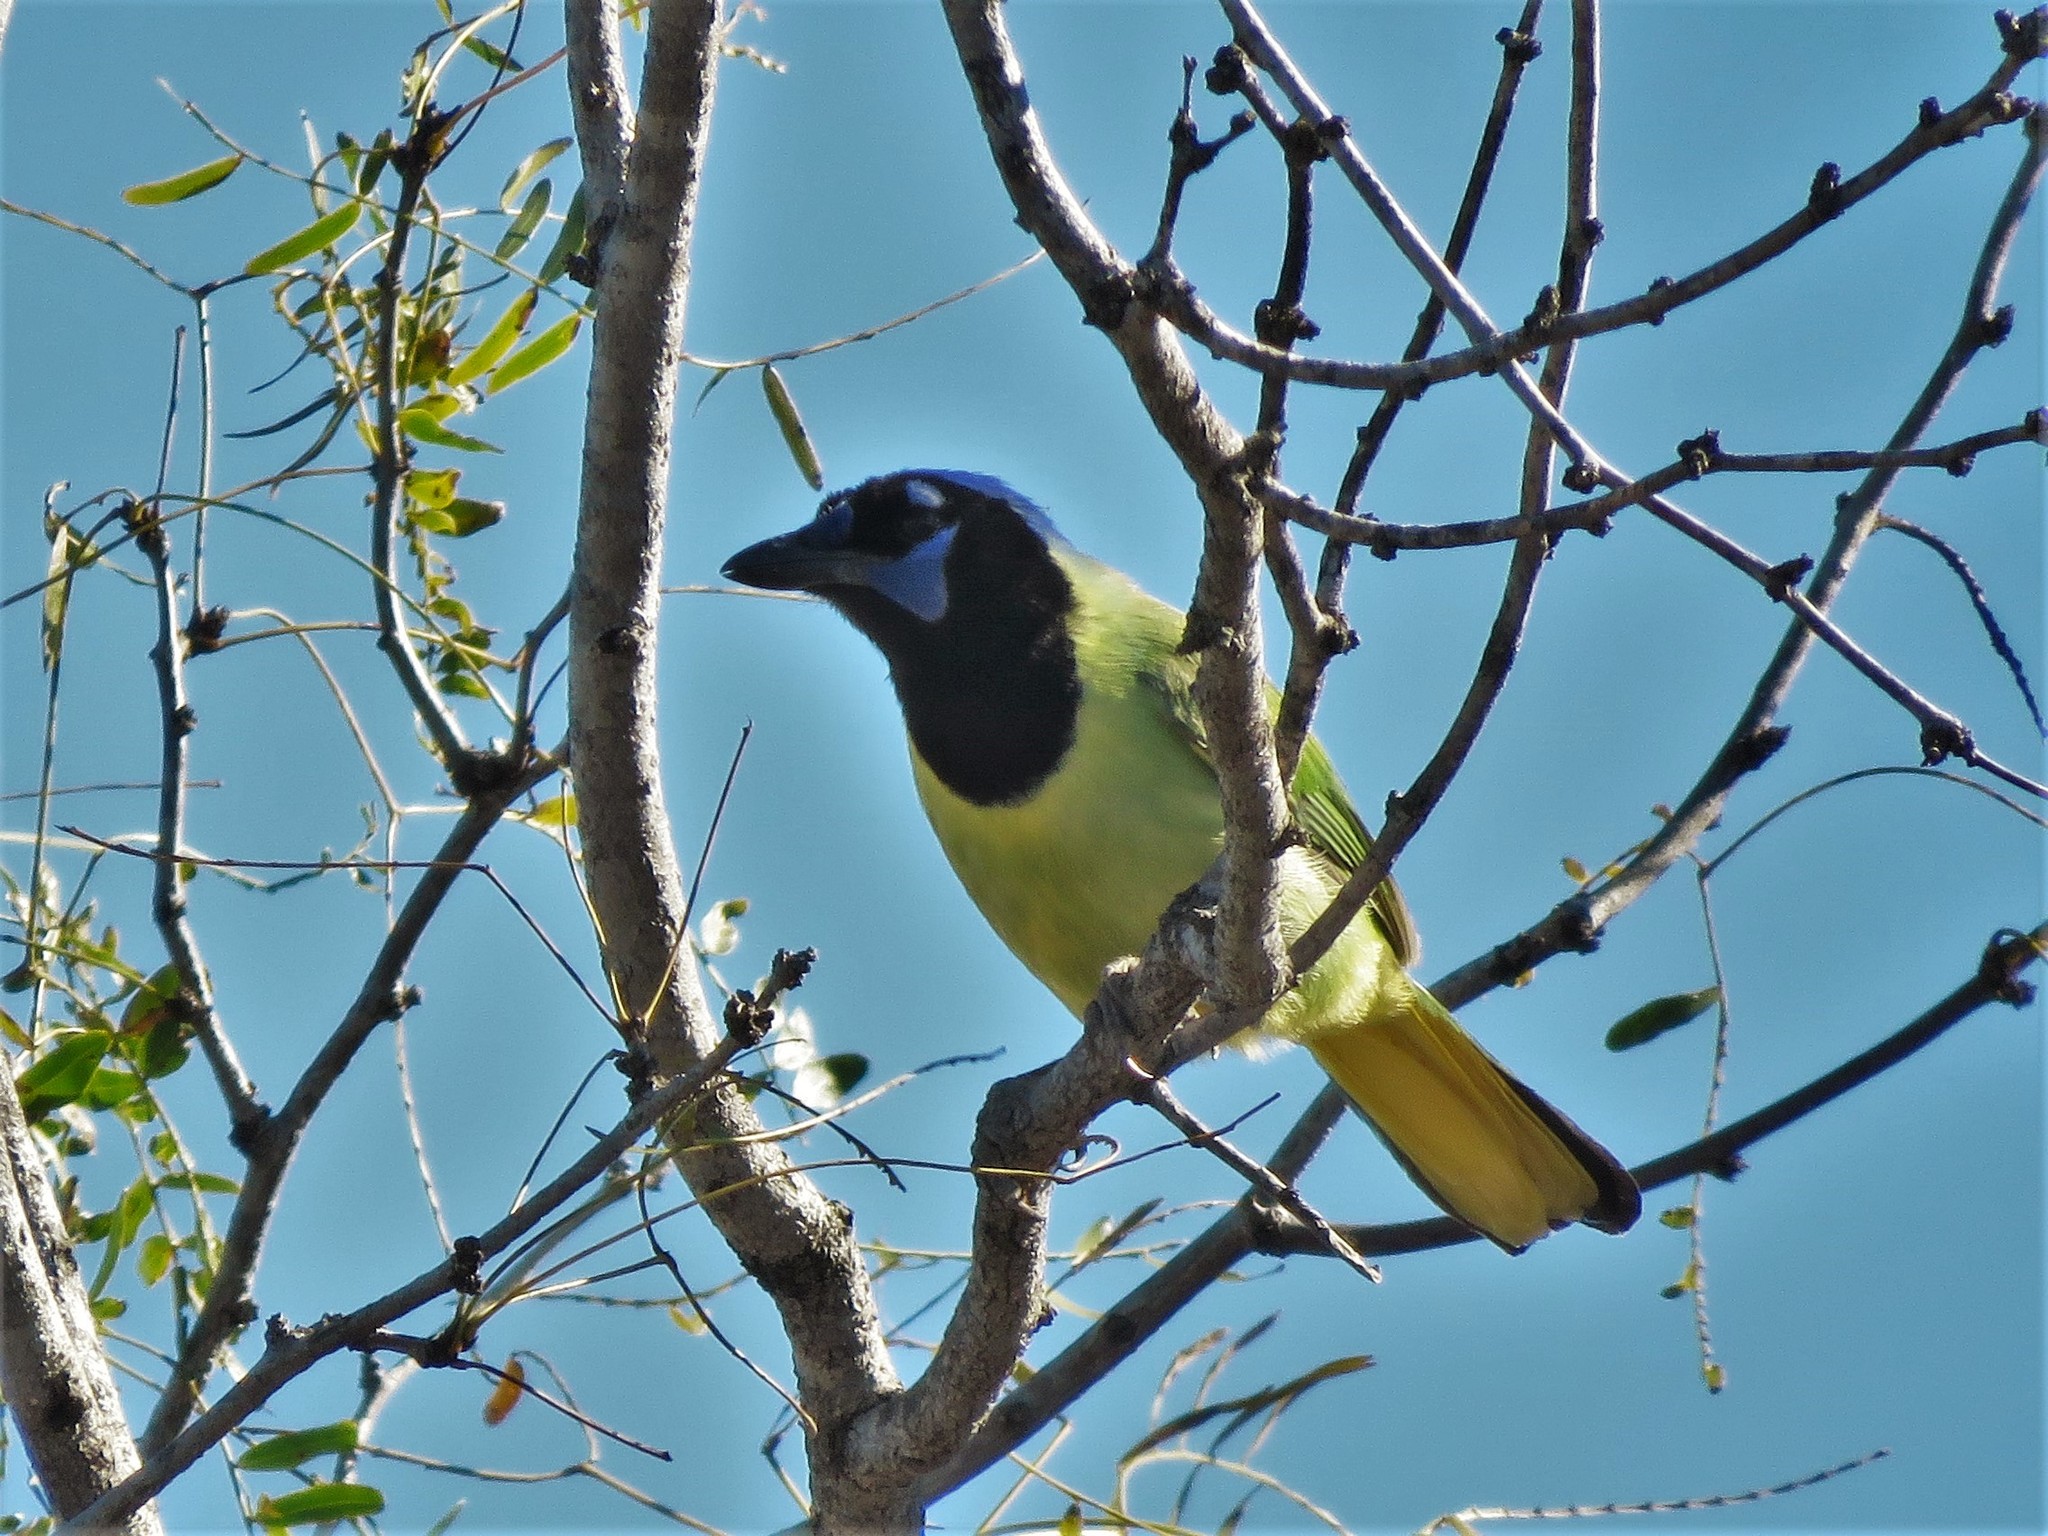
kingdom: Animalia
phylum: Chordata
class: Aves
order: Passeriformes
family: Corvidae
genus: Cyanocorax
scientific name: Cyanocorax yncas
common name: Green jay
